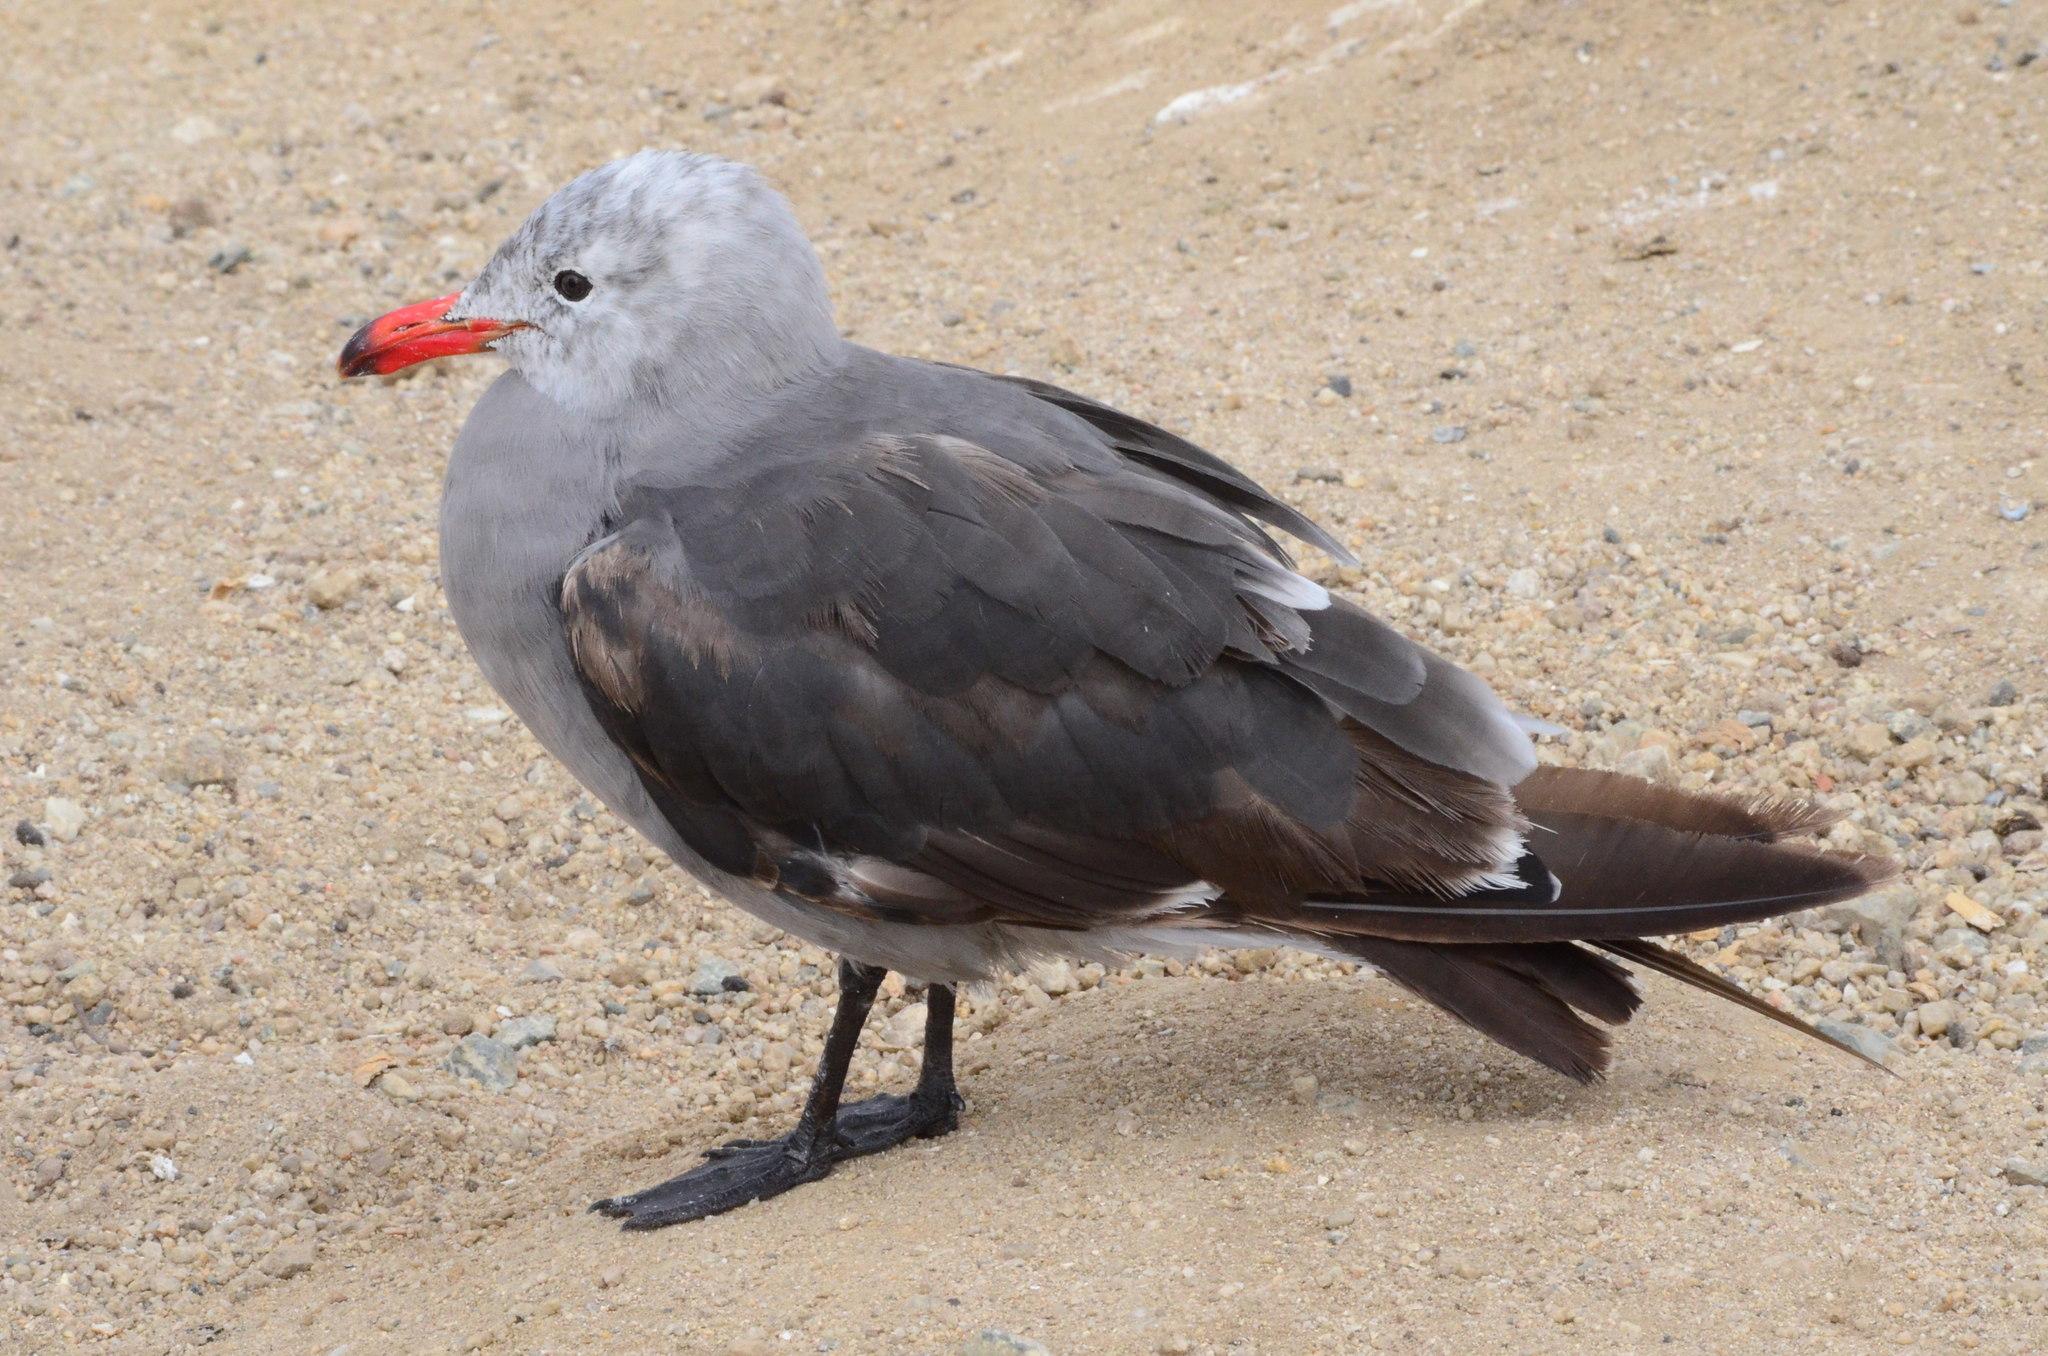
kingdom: Animalia
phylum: Chordata
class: Aves
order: Charadriiformes
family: Laridae
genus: Larus
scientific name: Larus heermanni
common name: Heermann's gull
